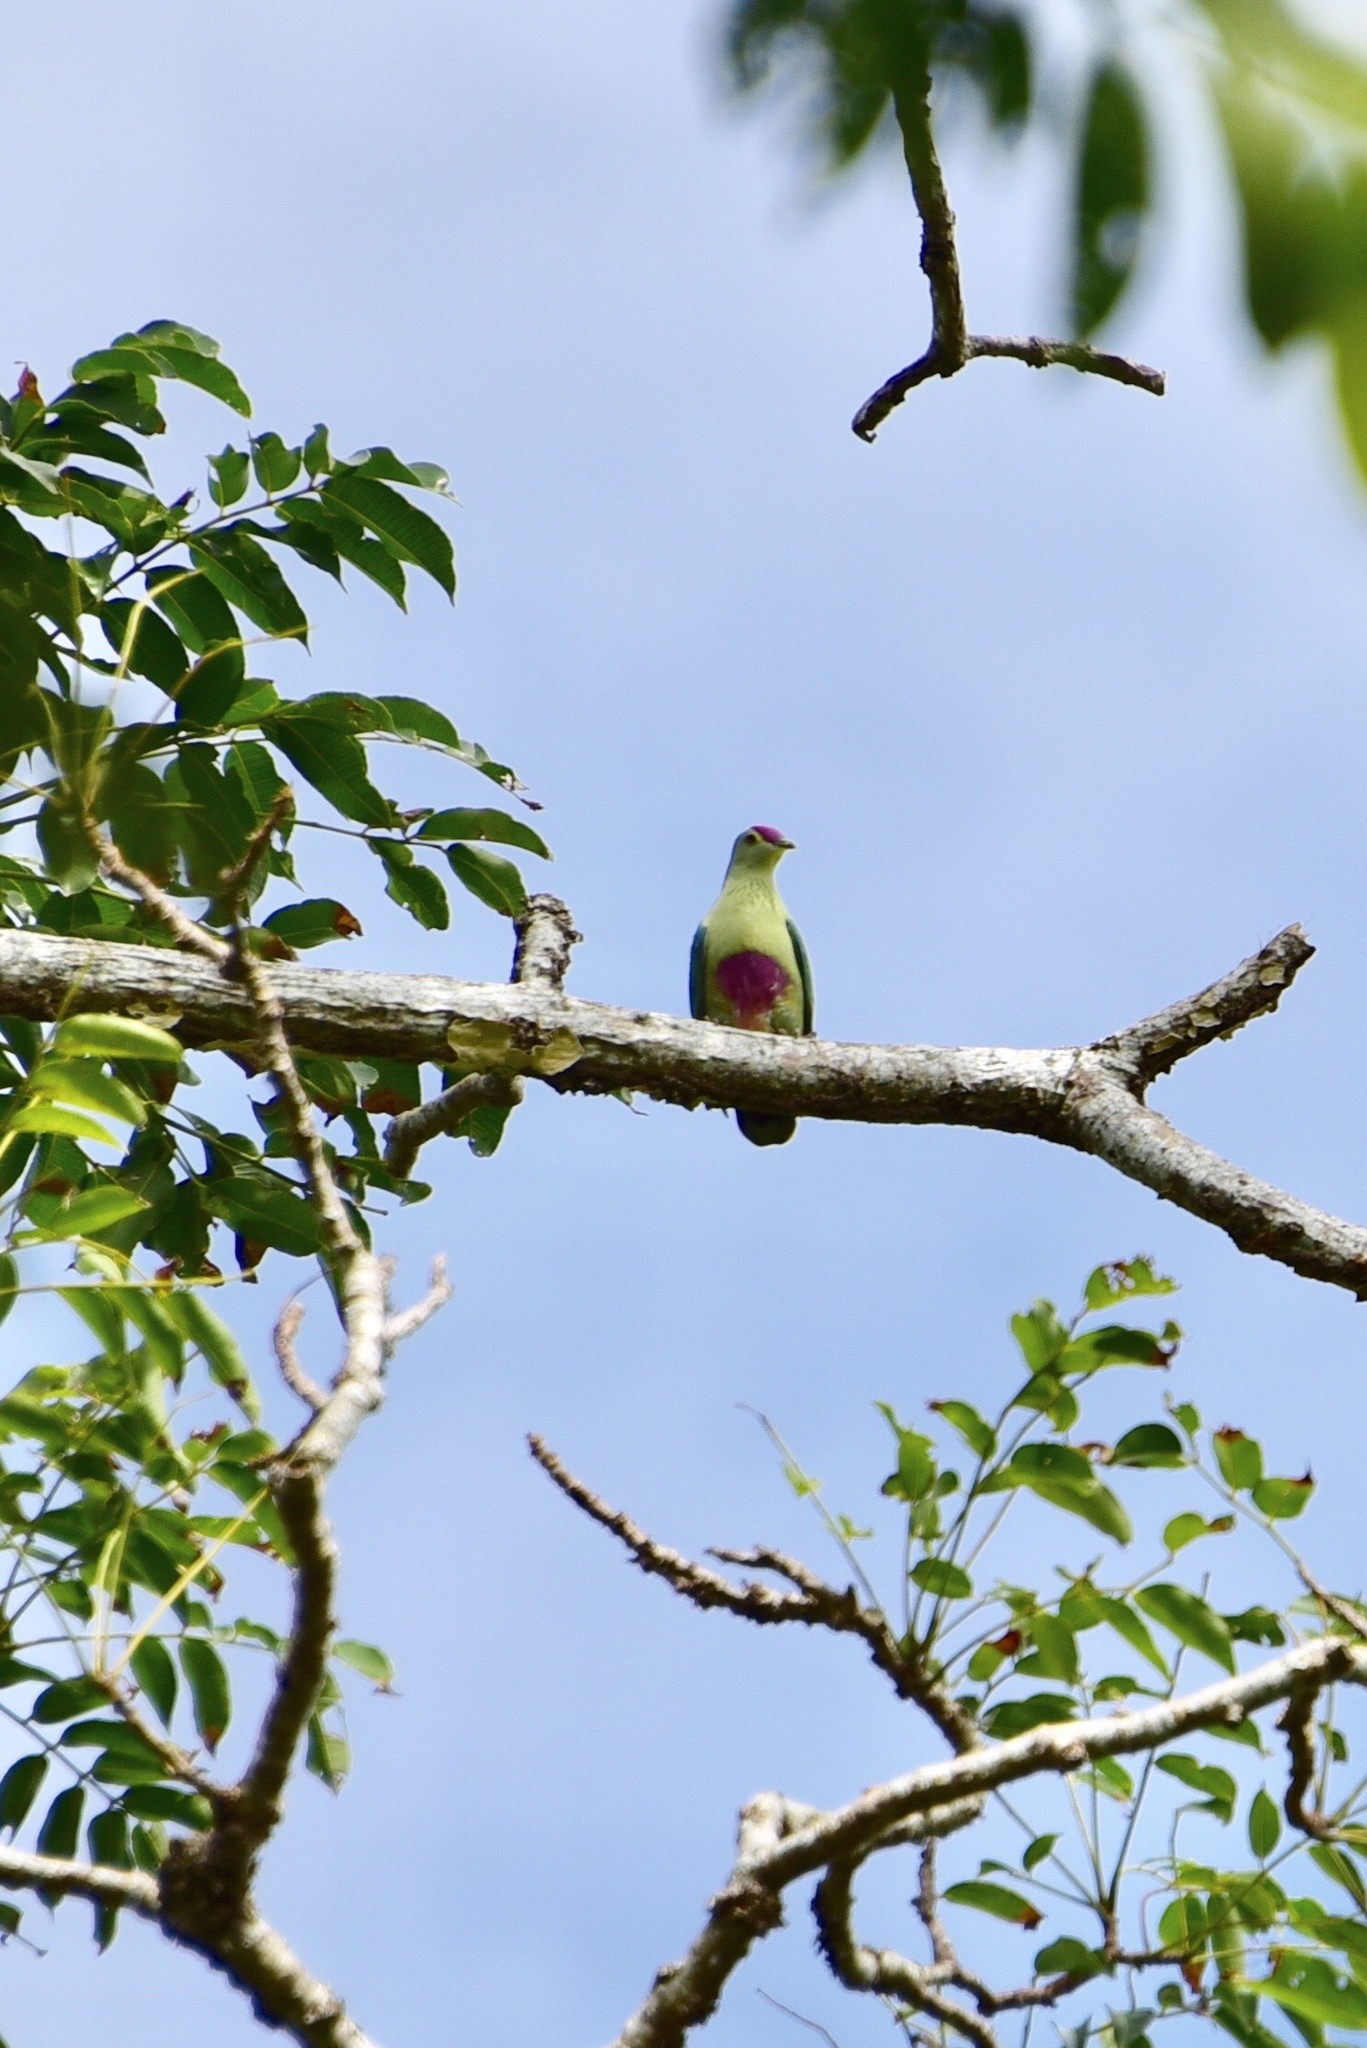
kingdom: Animalia
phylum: Chordata
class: Aves
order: Columbiformes
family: Columbidae
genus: Ptilinopus
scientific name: Ptilinopus greyi
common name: Red-bellied fruit-dove
